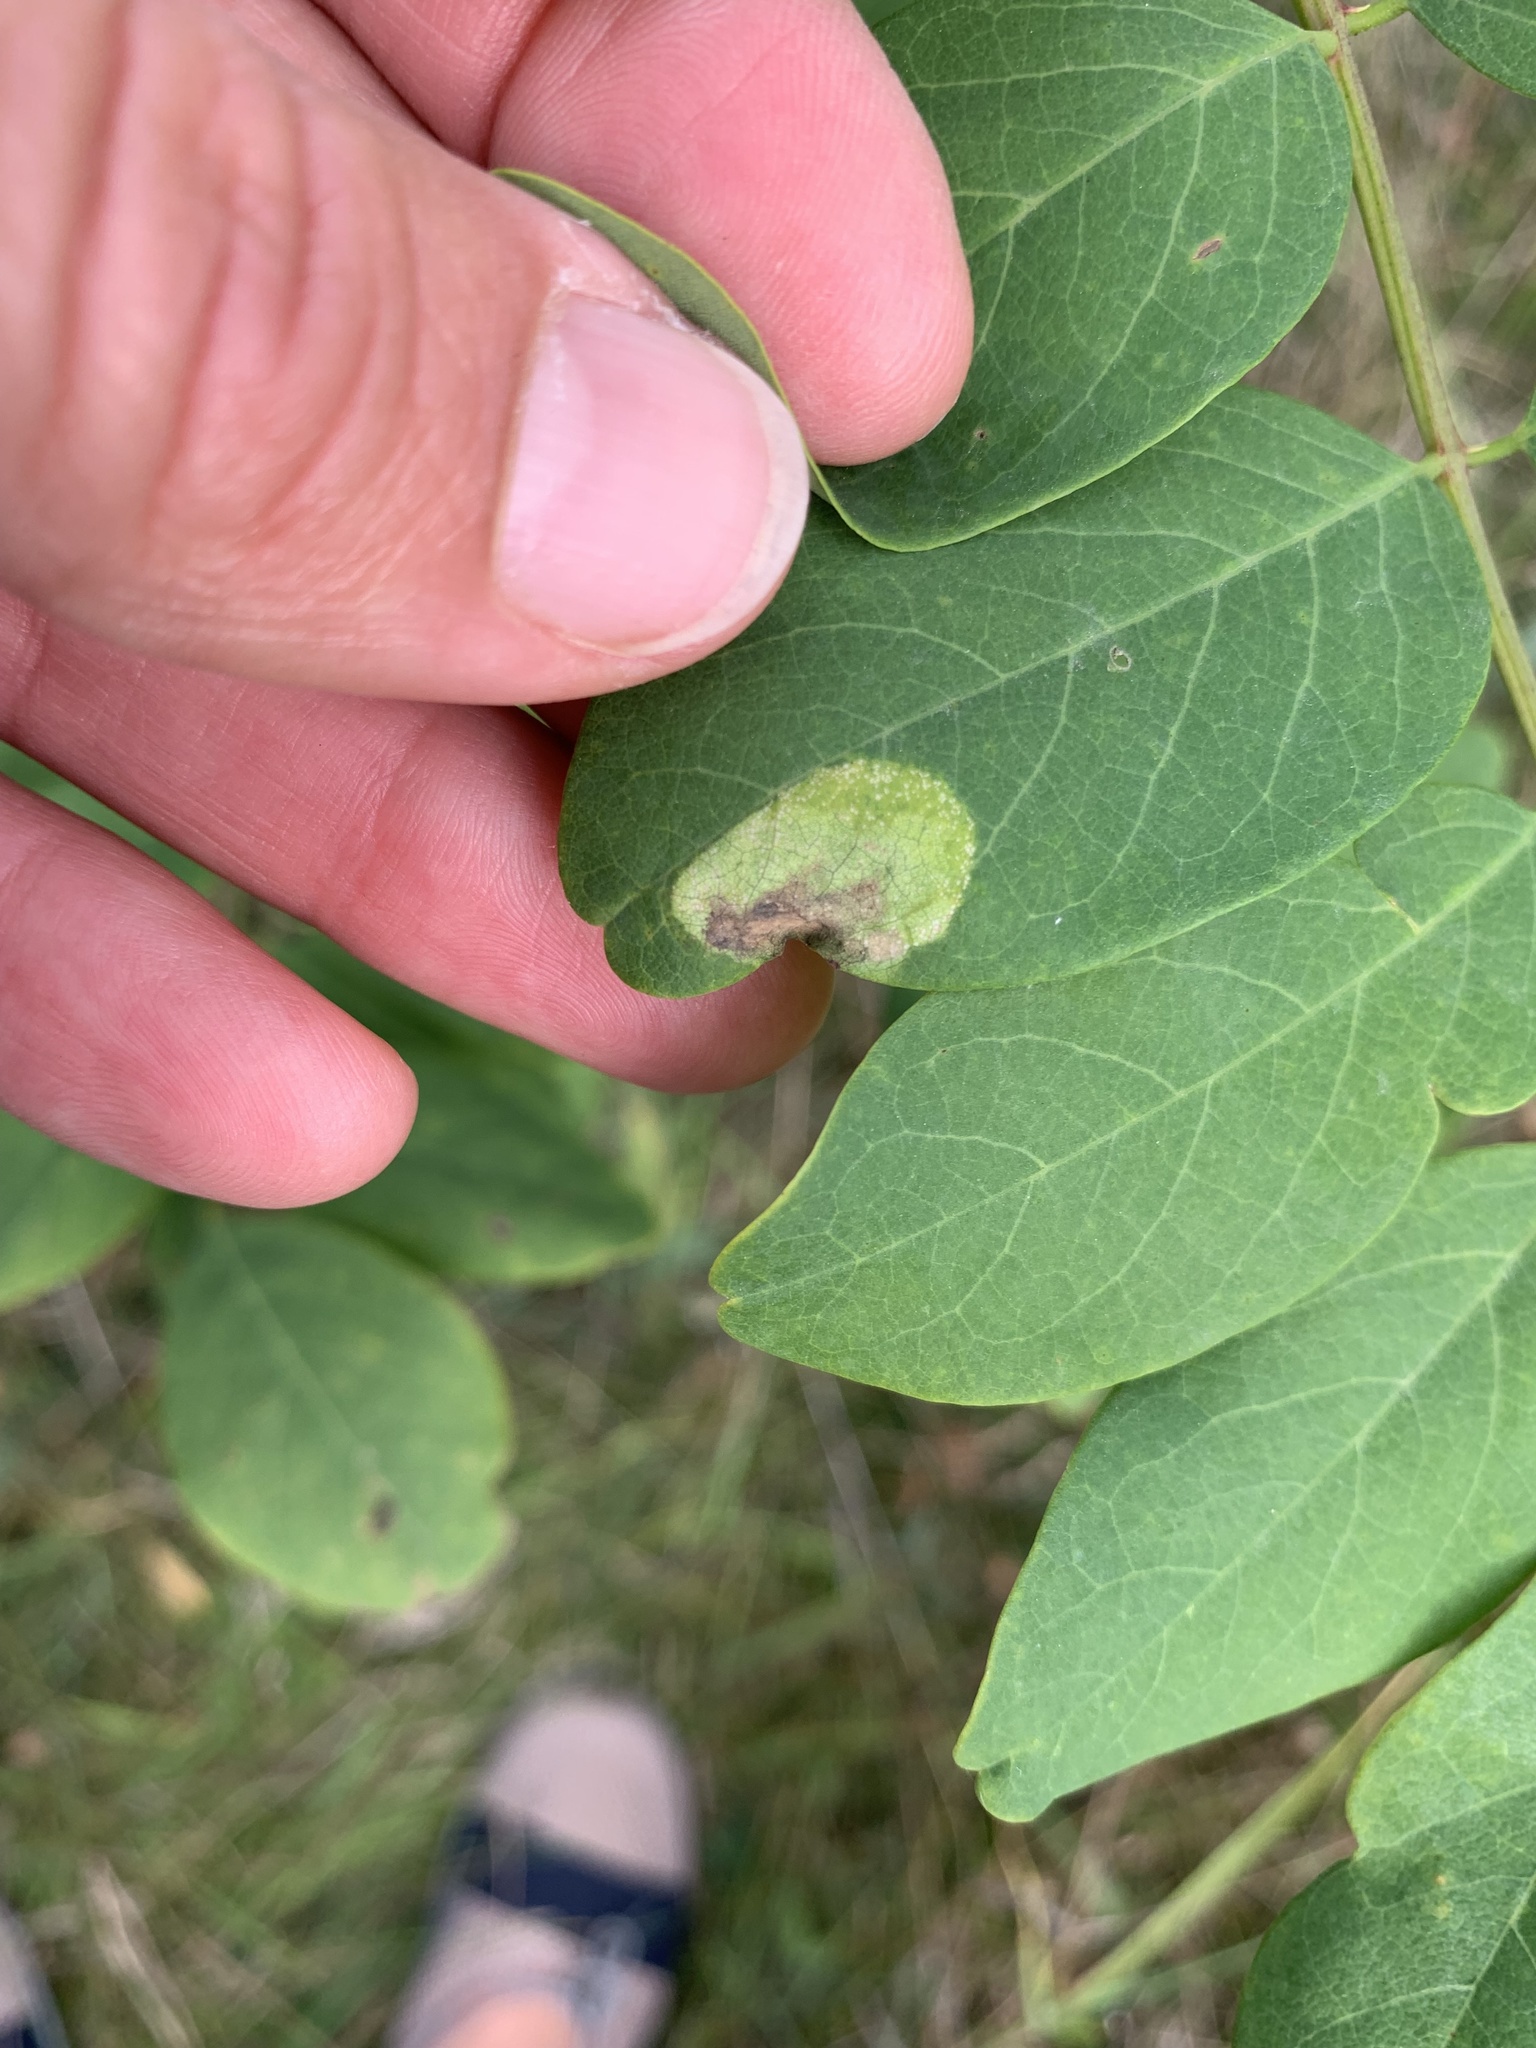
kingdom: Animalia
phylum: Arthropoda
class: Insecta
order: Lepidoptera
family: Gracillariidae
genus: Macrosaccus
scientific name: Macrosaccus robiniella
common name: Leaf blotch miner moth
